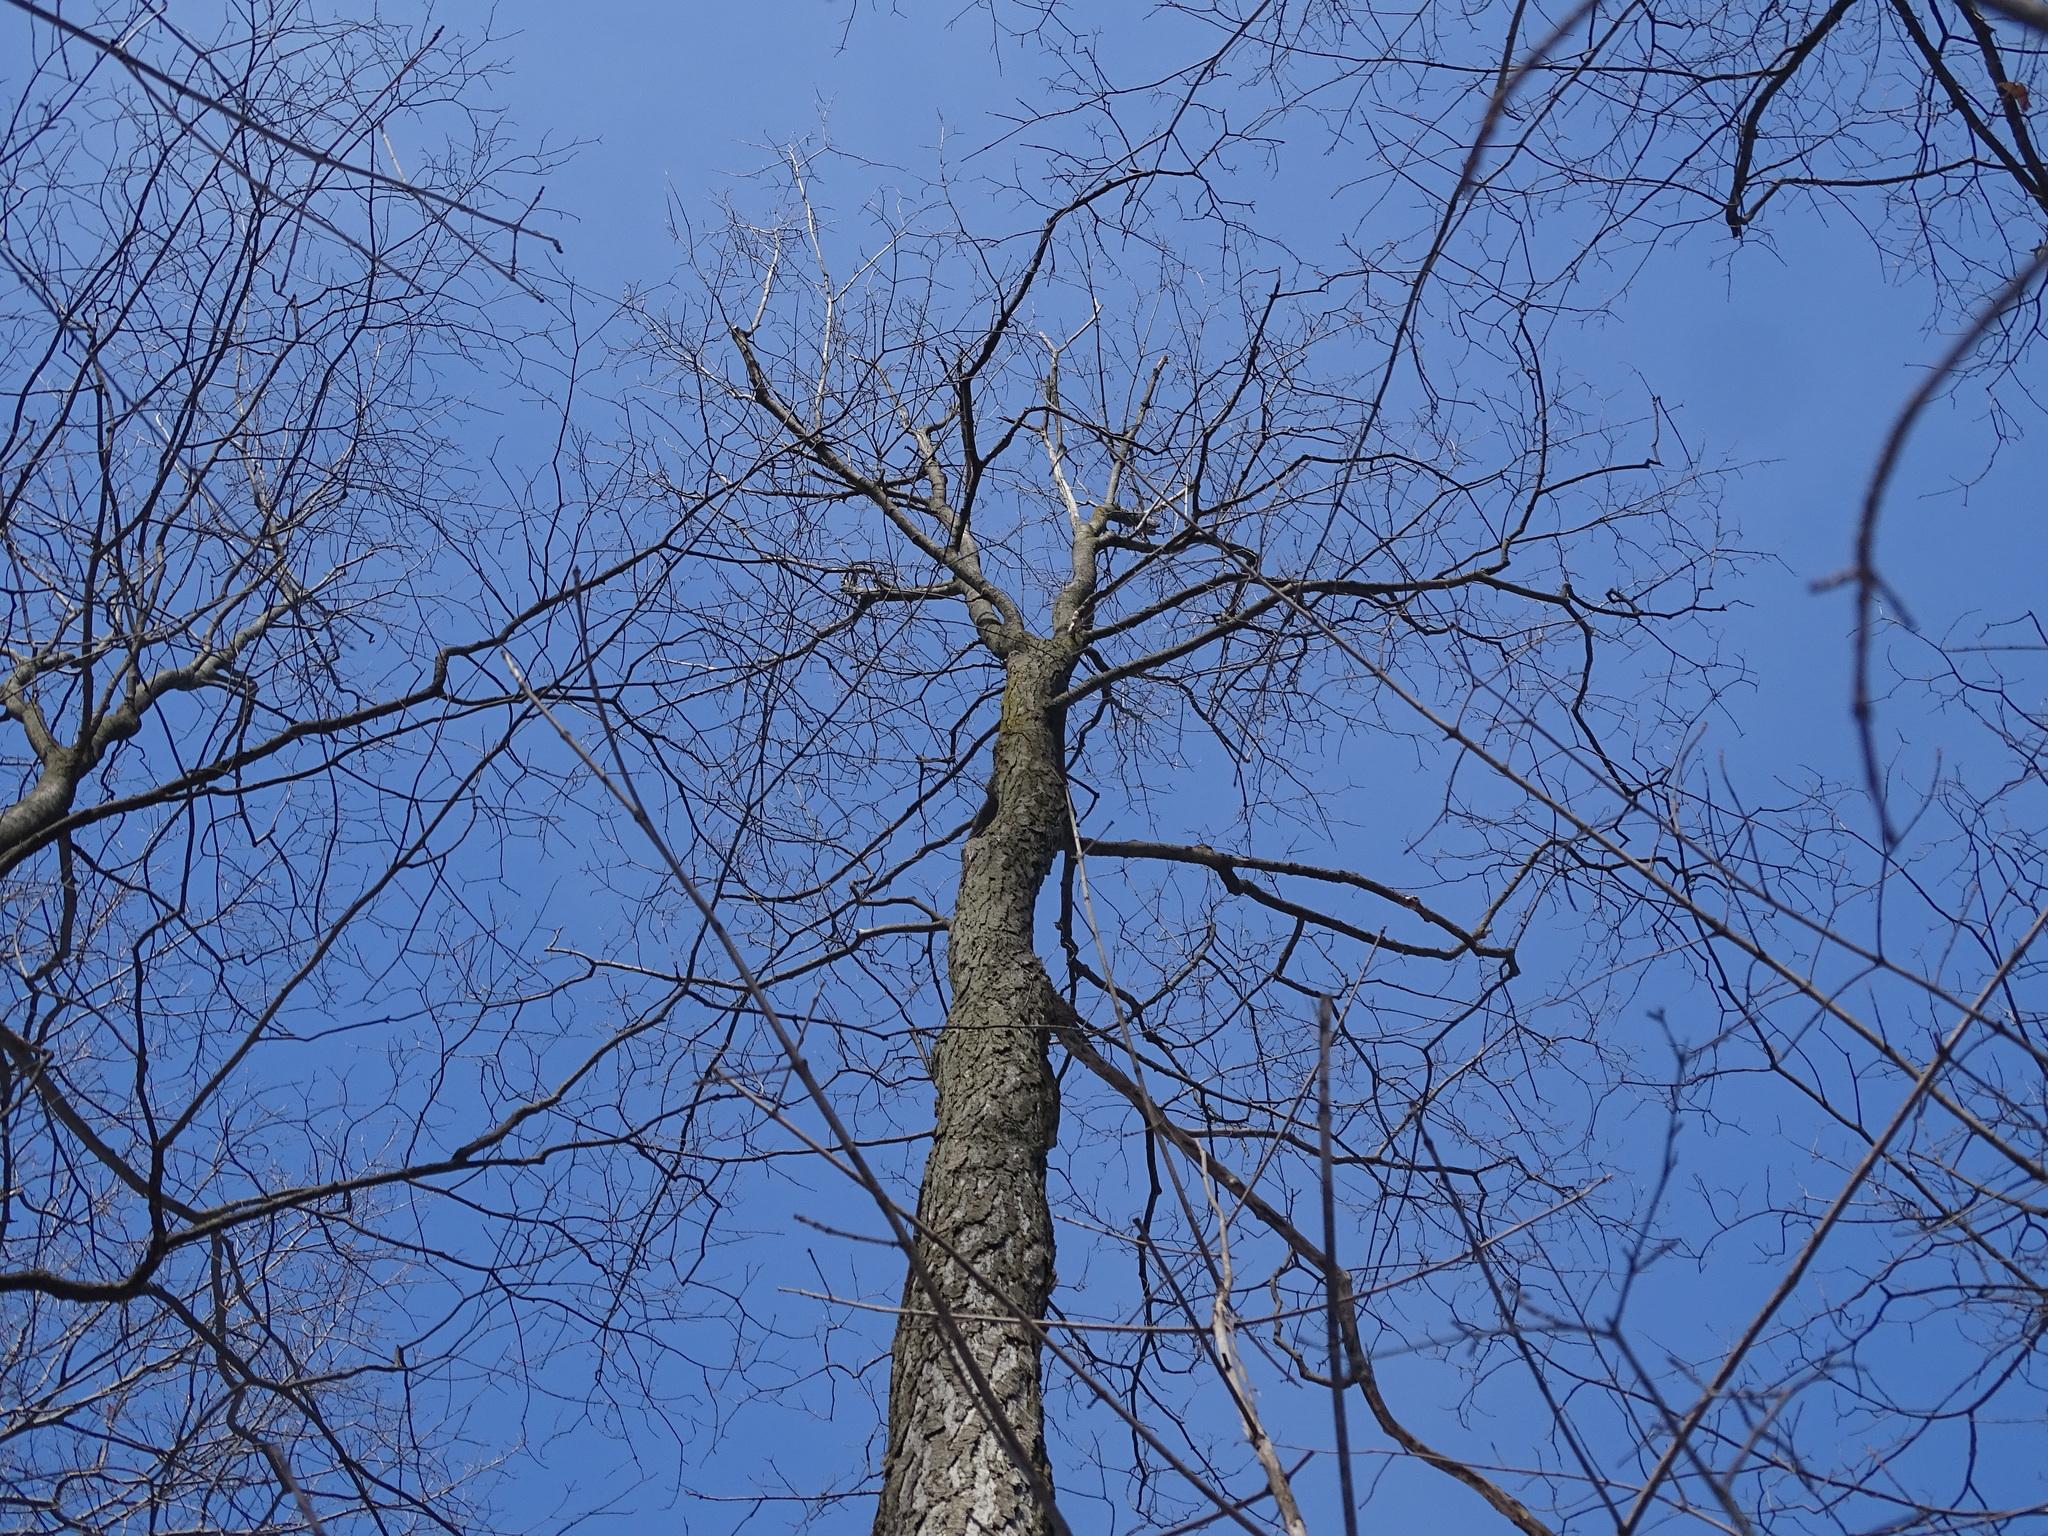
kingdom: Plantae
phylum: Tracheophyta
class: Magnoliopsida
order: Sapindales
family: Sapindaceae
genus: Acer
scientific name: Acer saccharum
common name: Sugar maple
